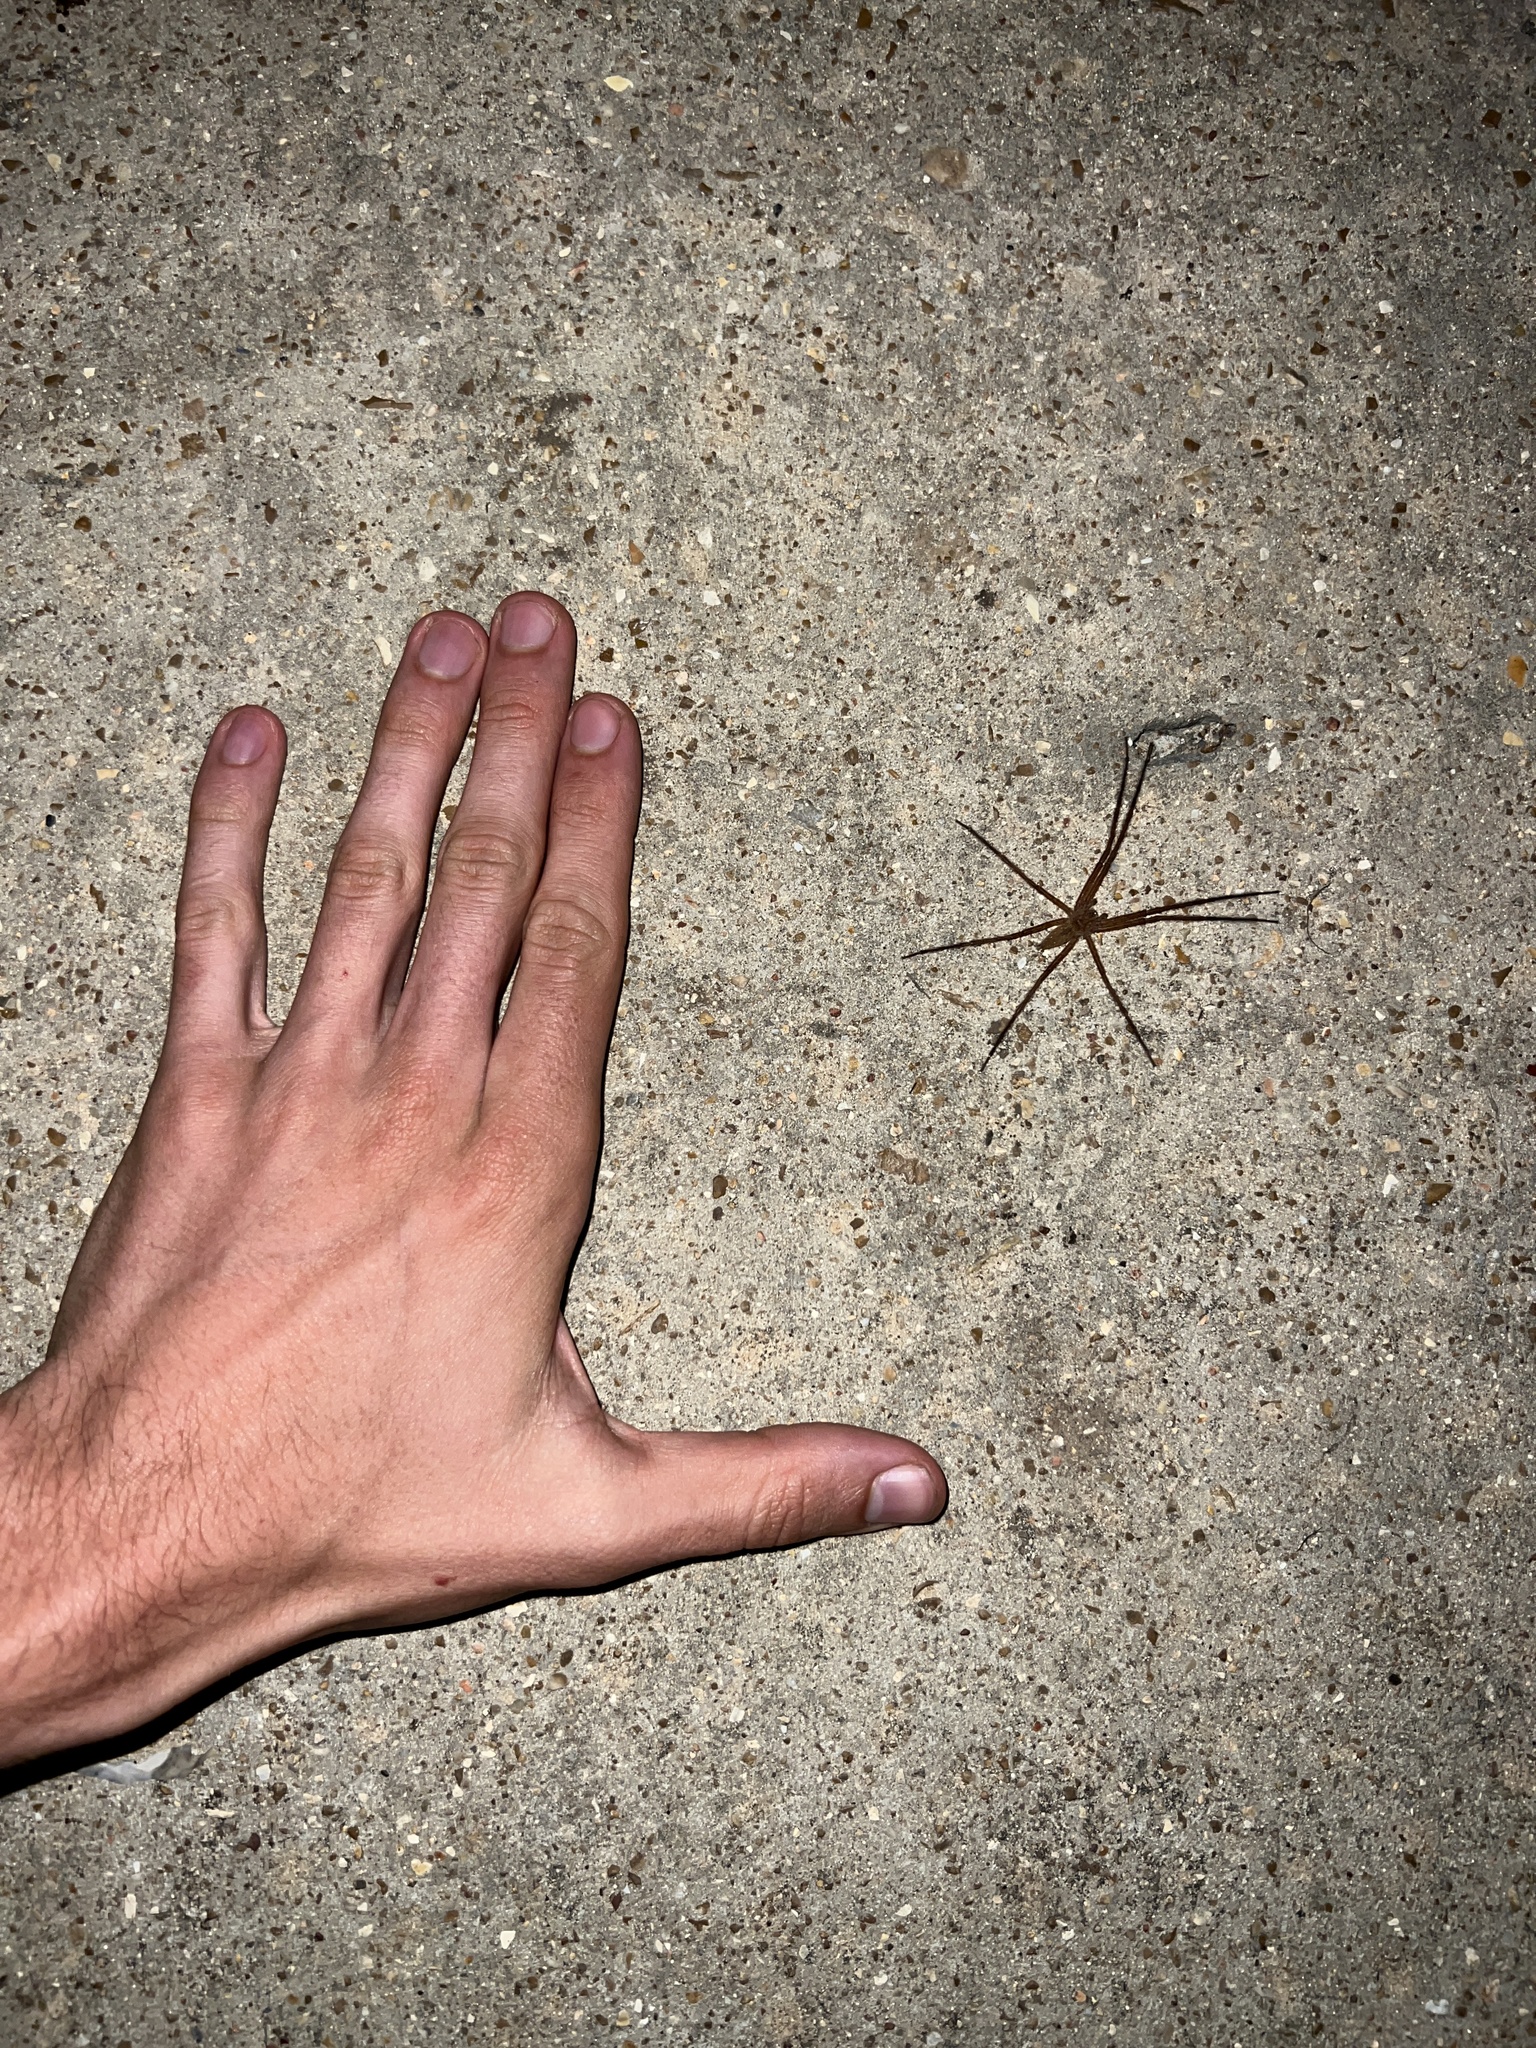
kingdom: Animalia
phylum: Arthropoda
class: Arachnida
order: Araneae
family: Pisauridae
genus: Pisaurina
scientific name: Pisaurina mira
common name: American nursery web spider
